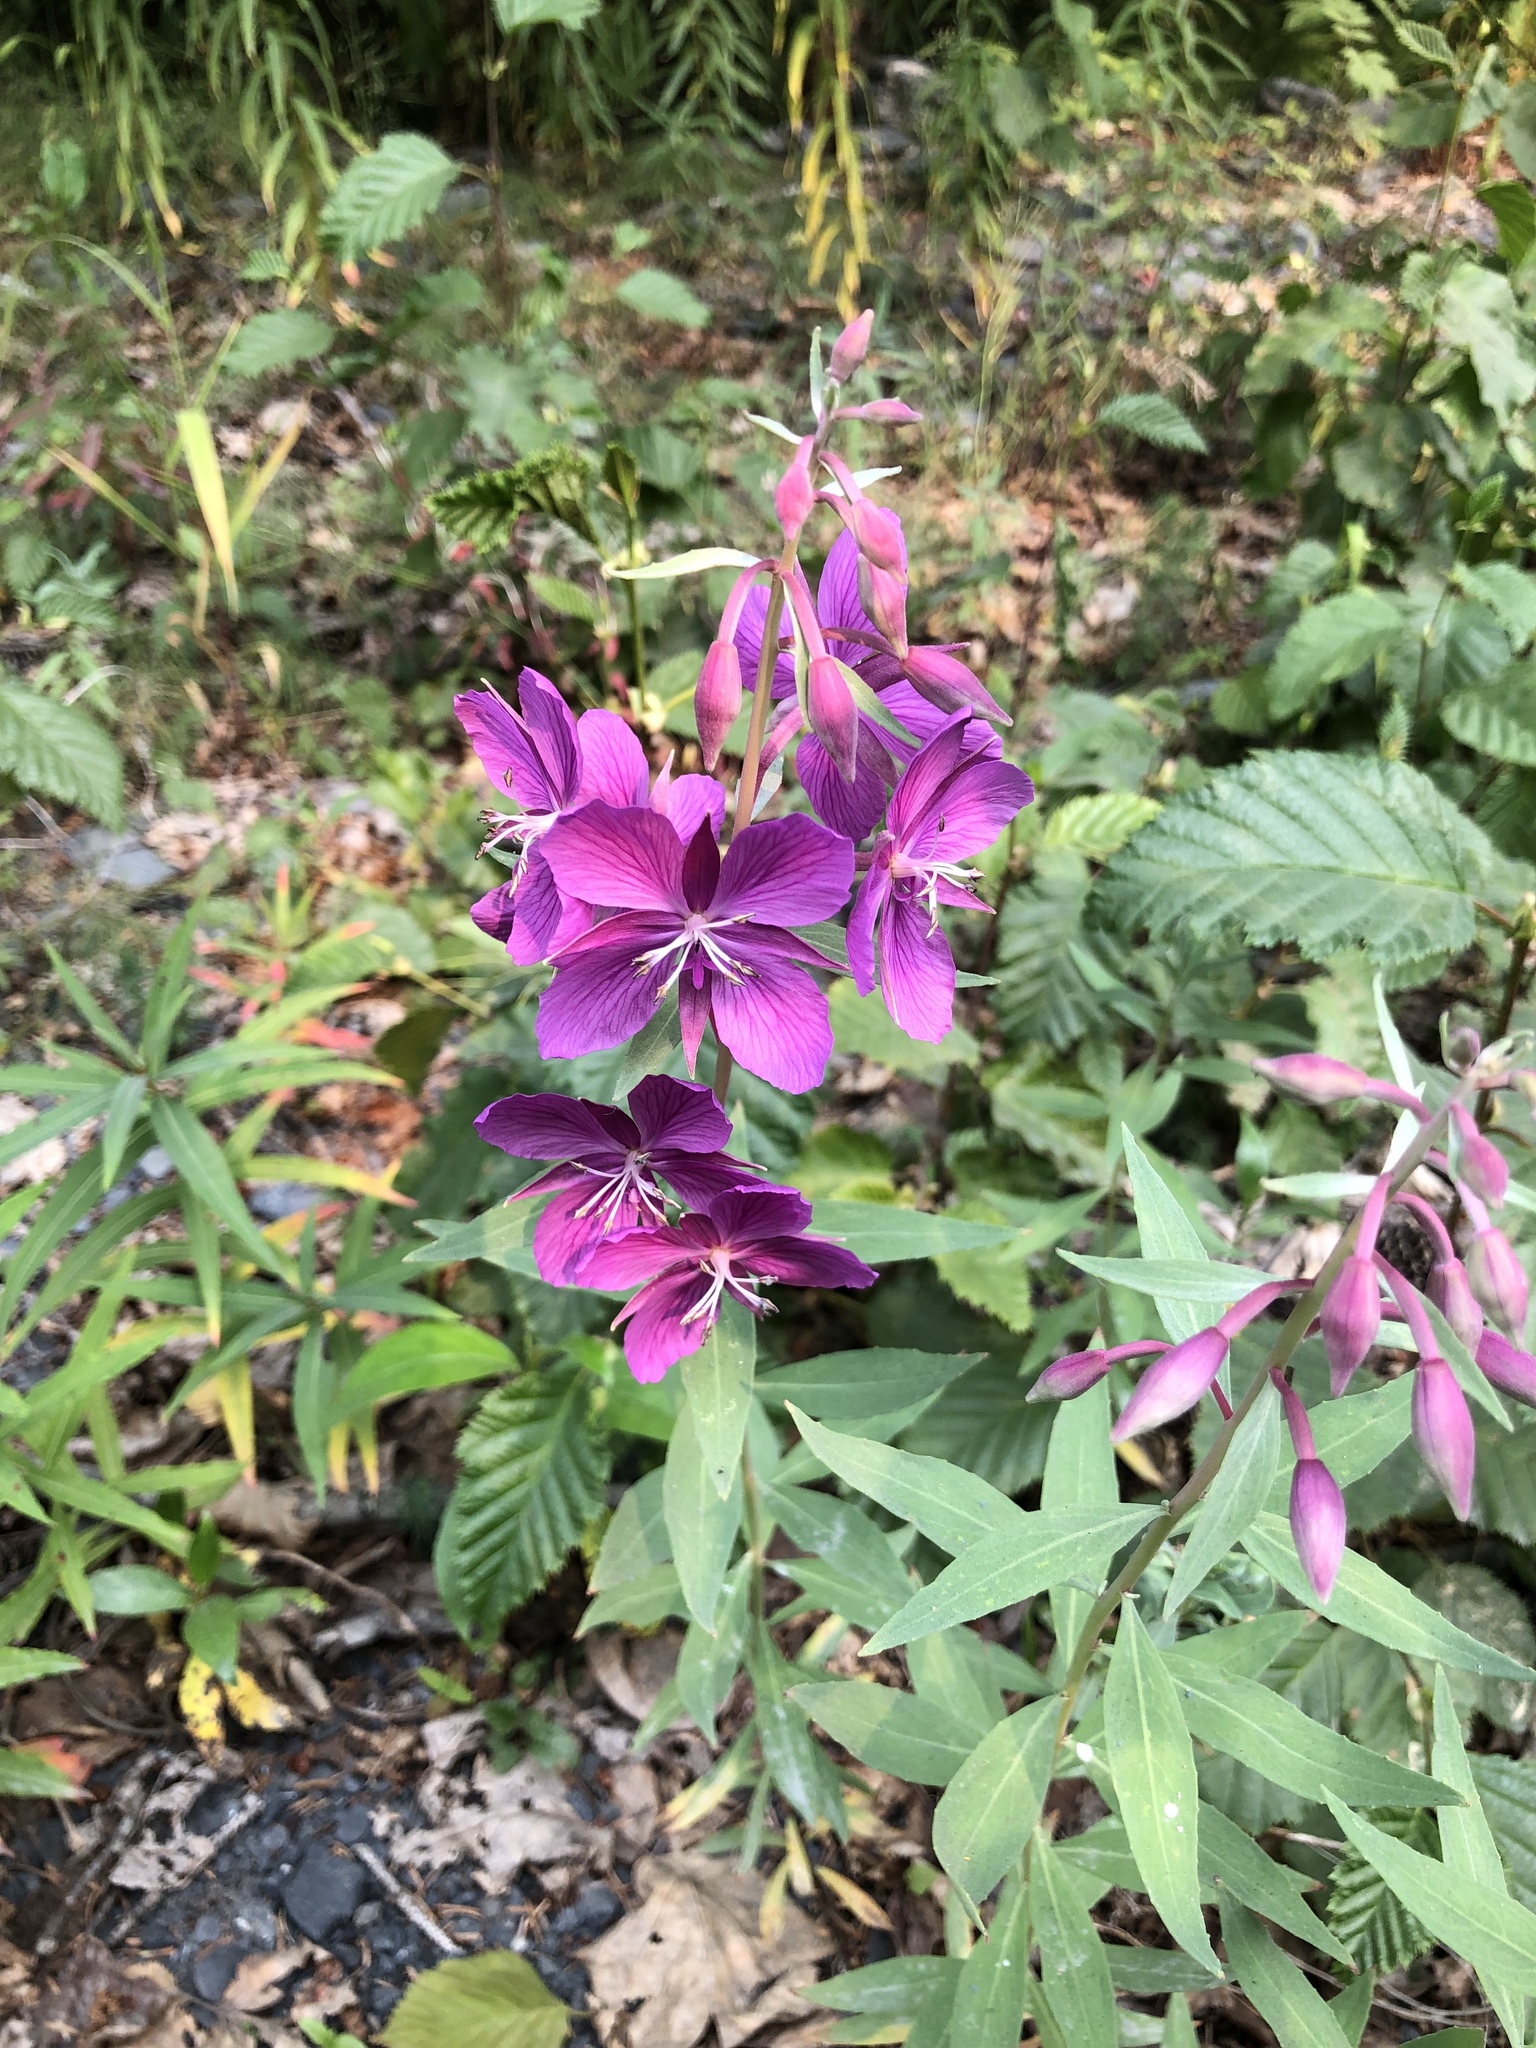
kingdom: Plantae
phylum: Tracheophyta
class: Magnoliopsida
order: Myrtales
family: Onagraceae
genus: Chamaenerion
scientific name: Chamaenerion latifolium
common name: Dwarf fireweed
